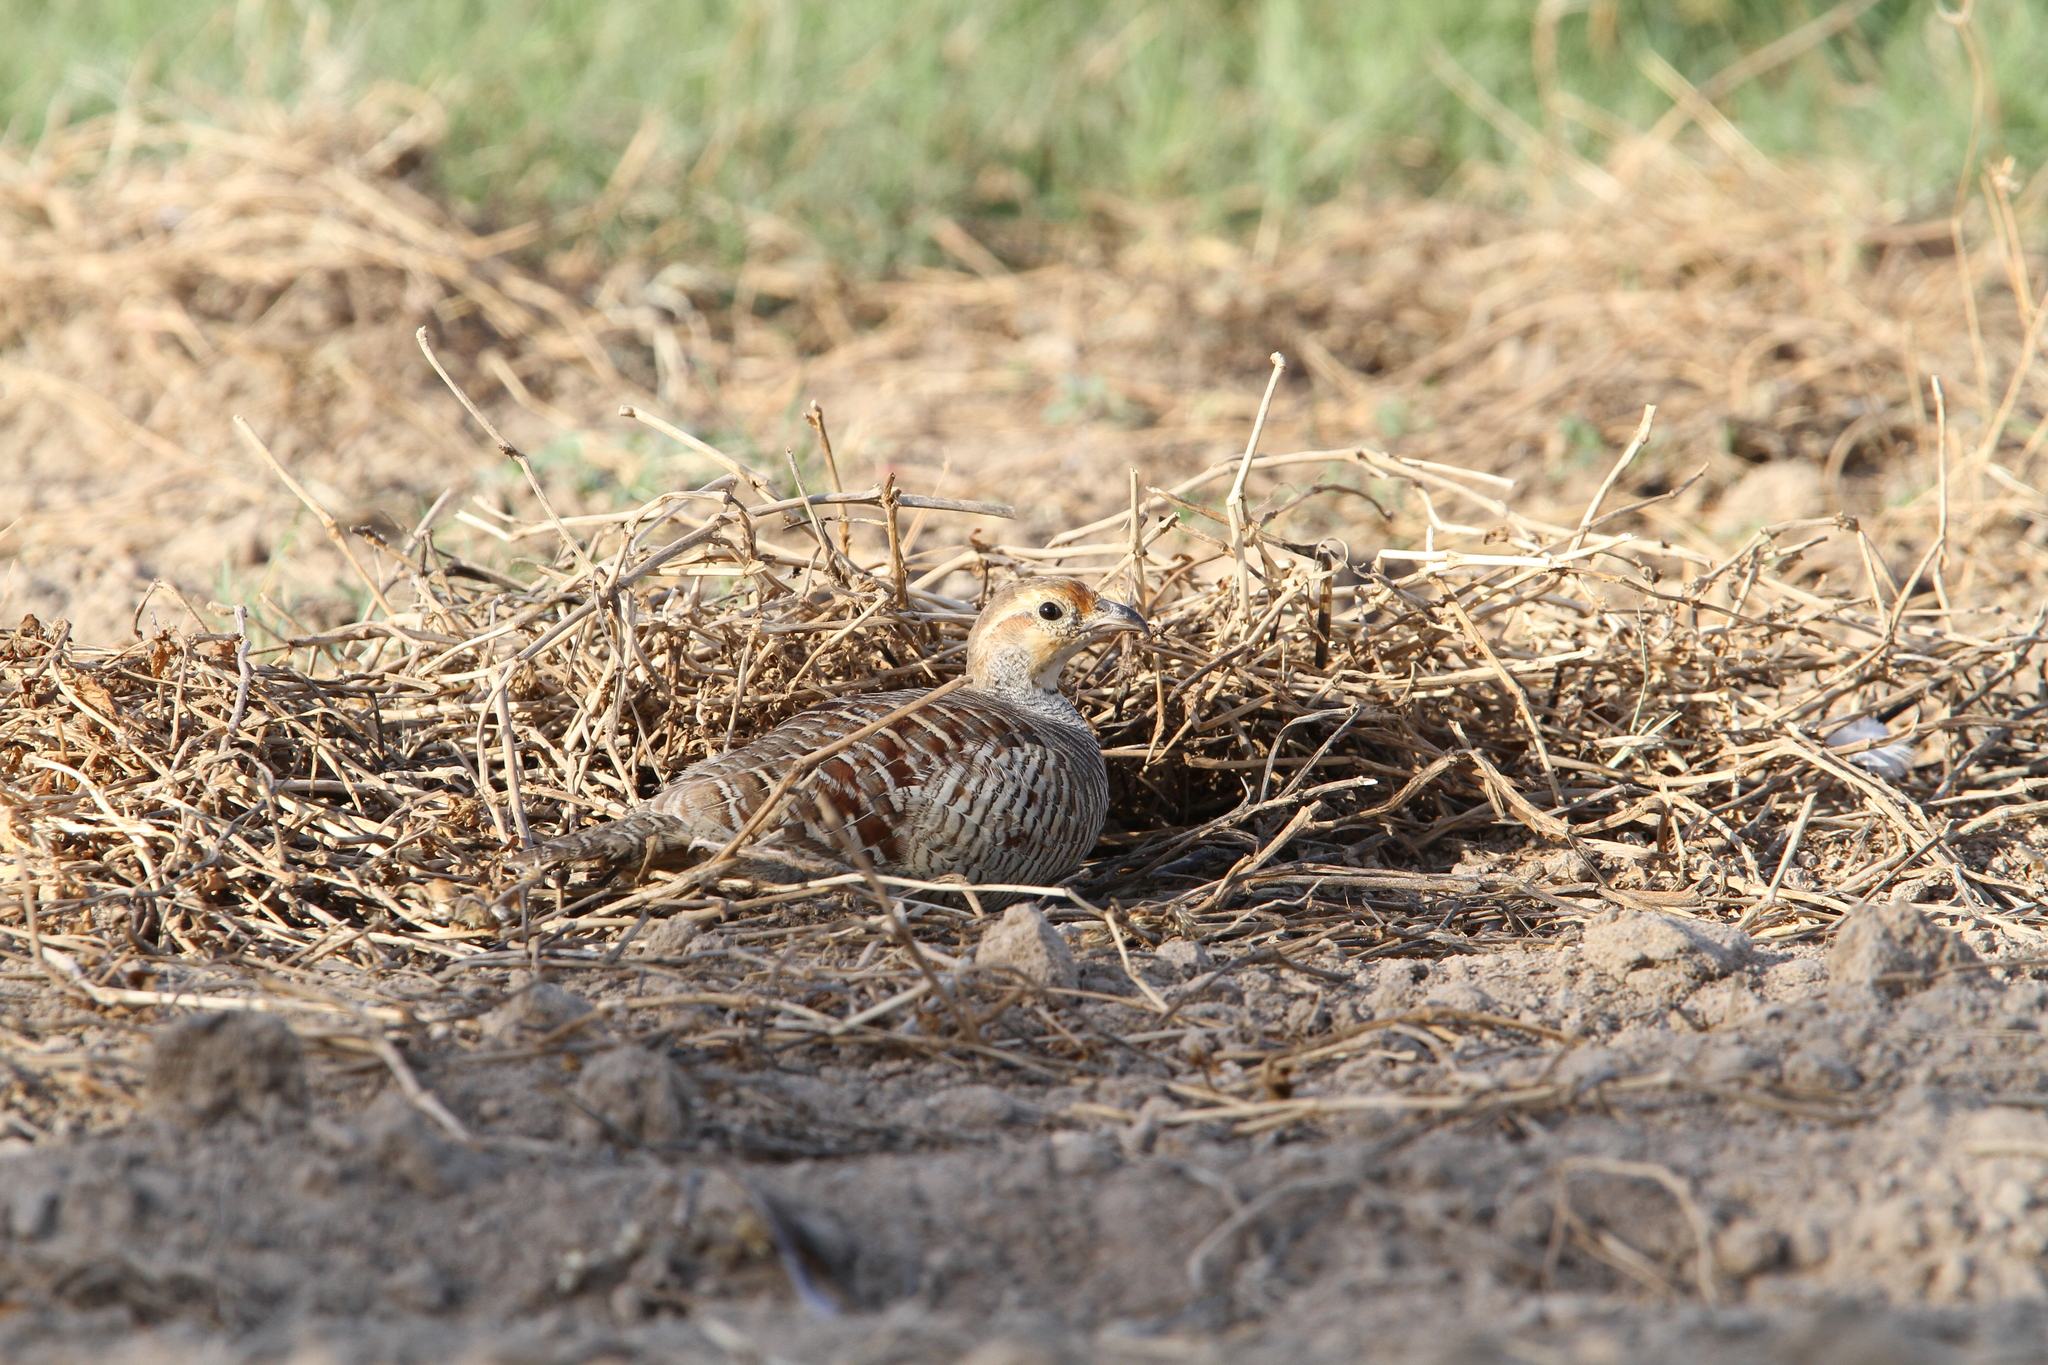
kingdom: Animalia
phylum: Chordata
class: Aves
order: Galliformes
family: Phasianidae
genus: Ortygornis
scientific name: Ortygornis pondicerianus
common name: Grey francolin
